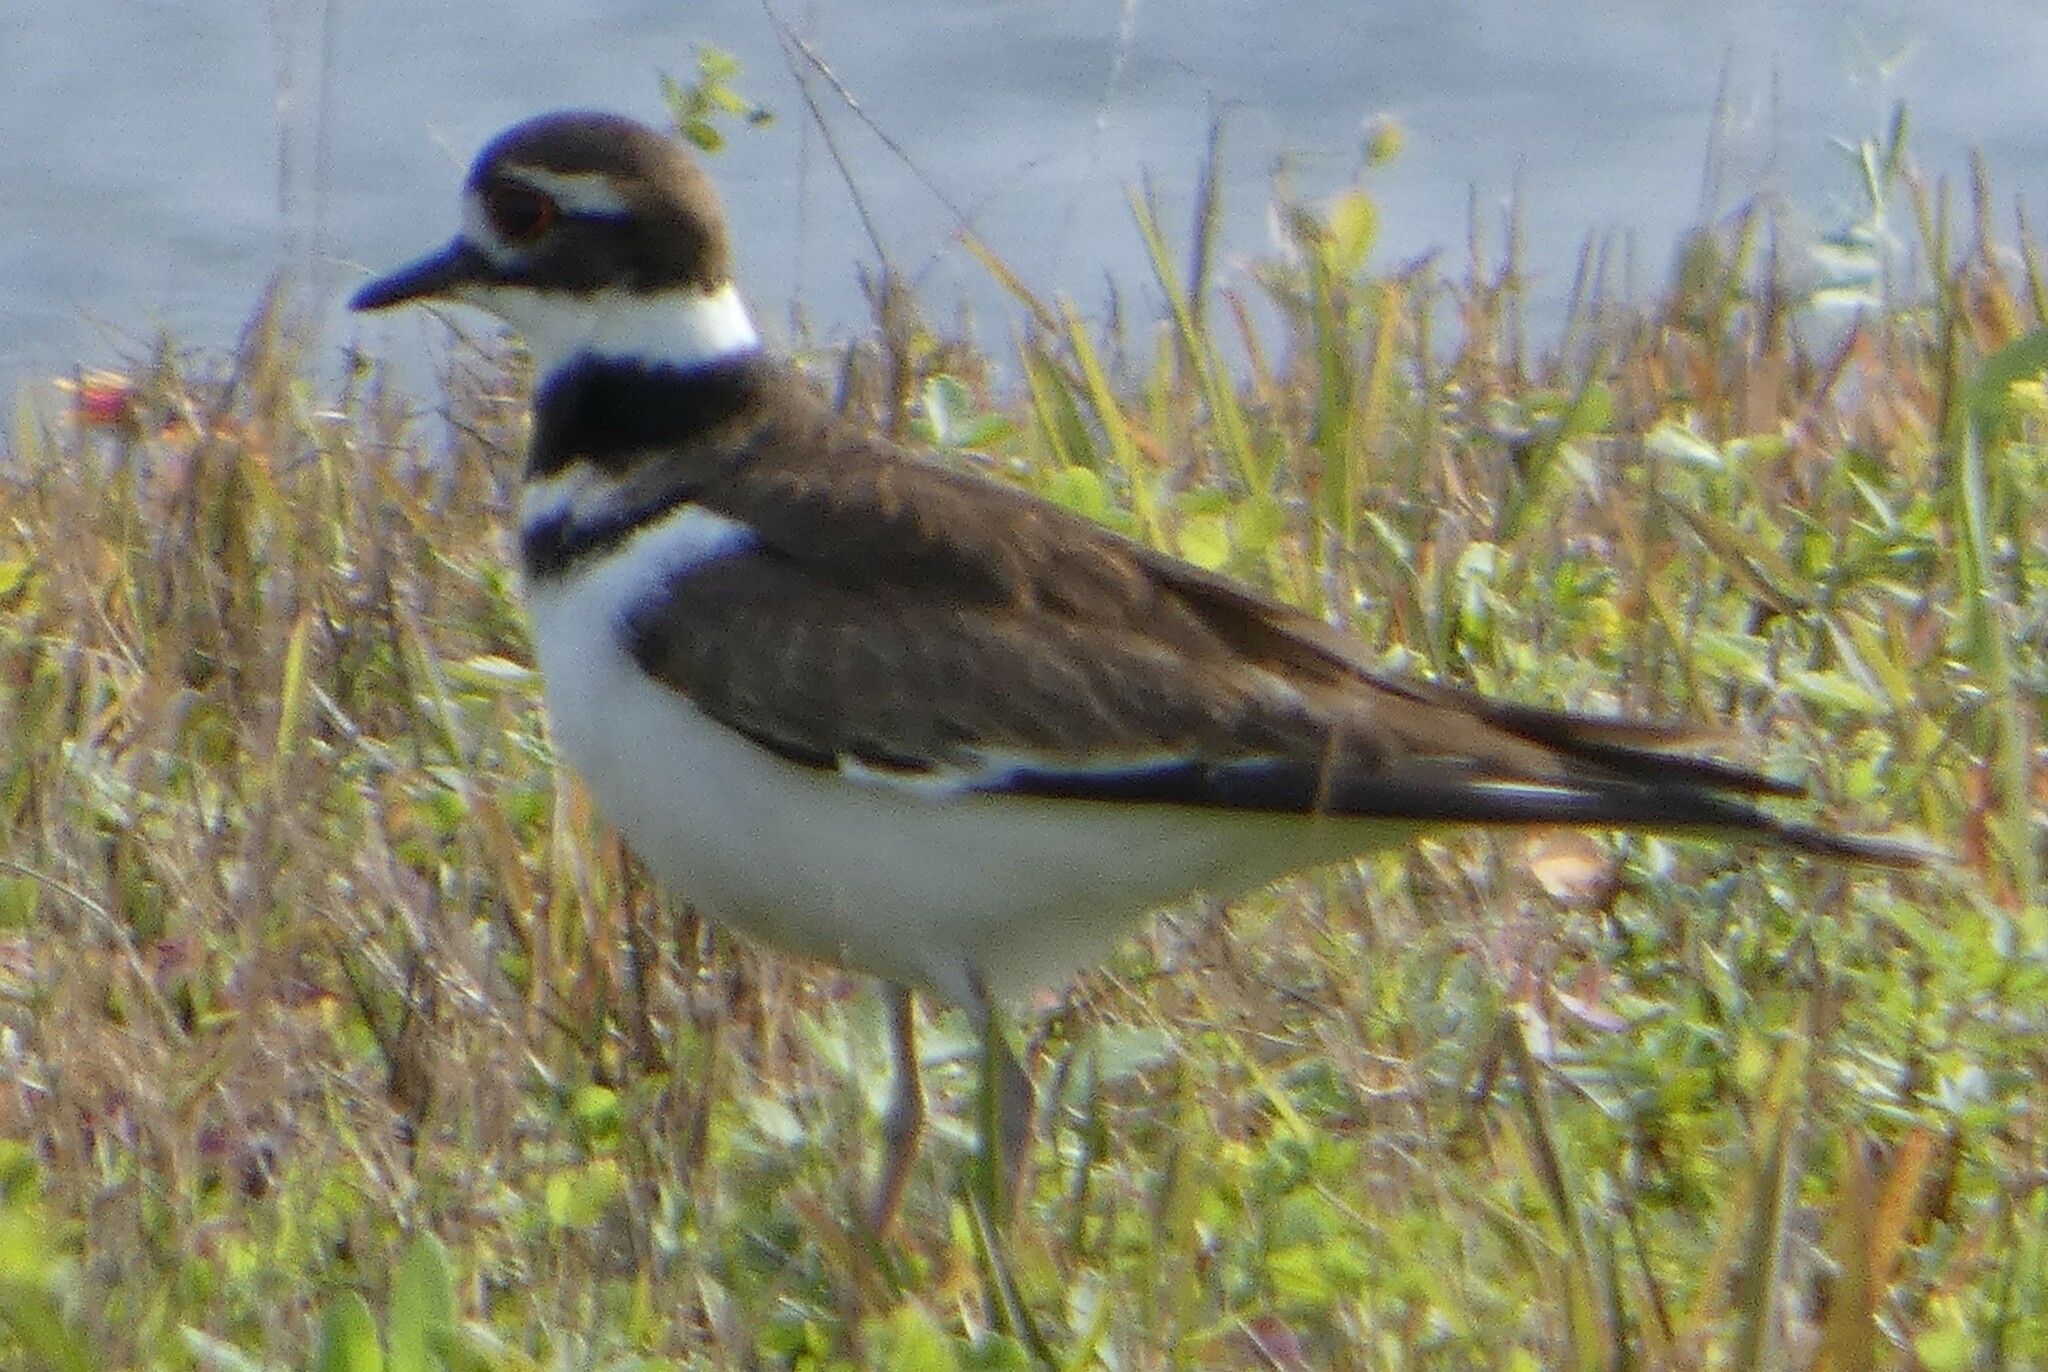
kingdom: Animalia
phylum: Chordata
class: Aves
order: Charadriiformes
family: Charadriidae
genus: Charadrius
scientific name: Charadrius vociferus
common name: Killdeer
